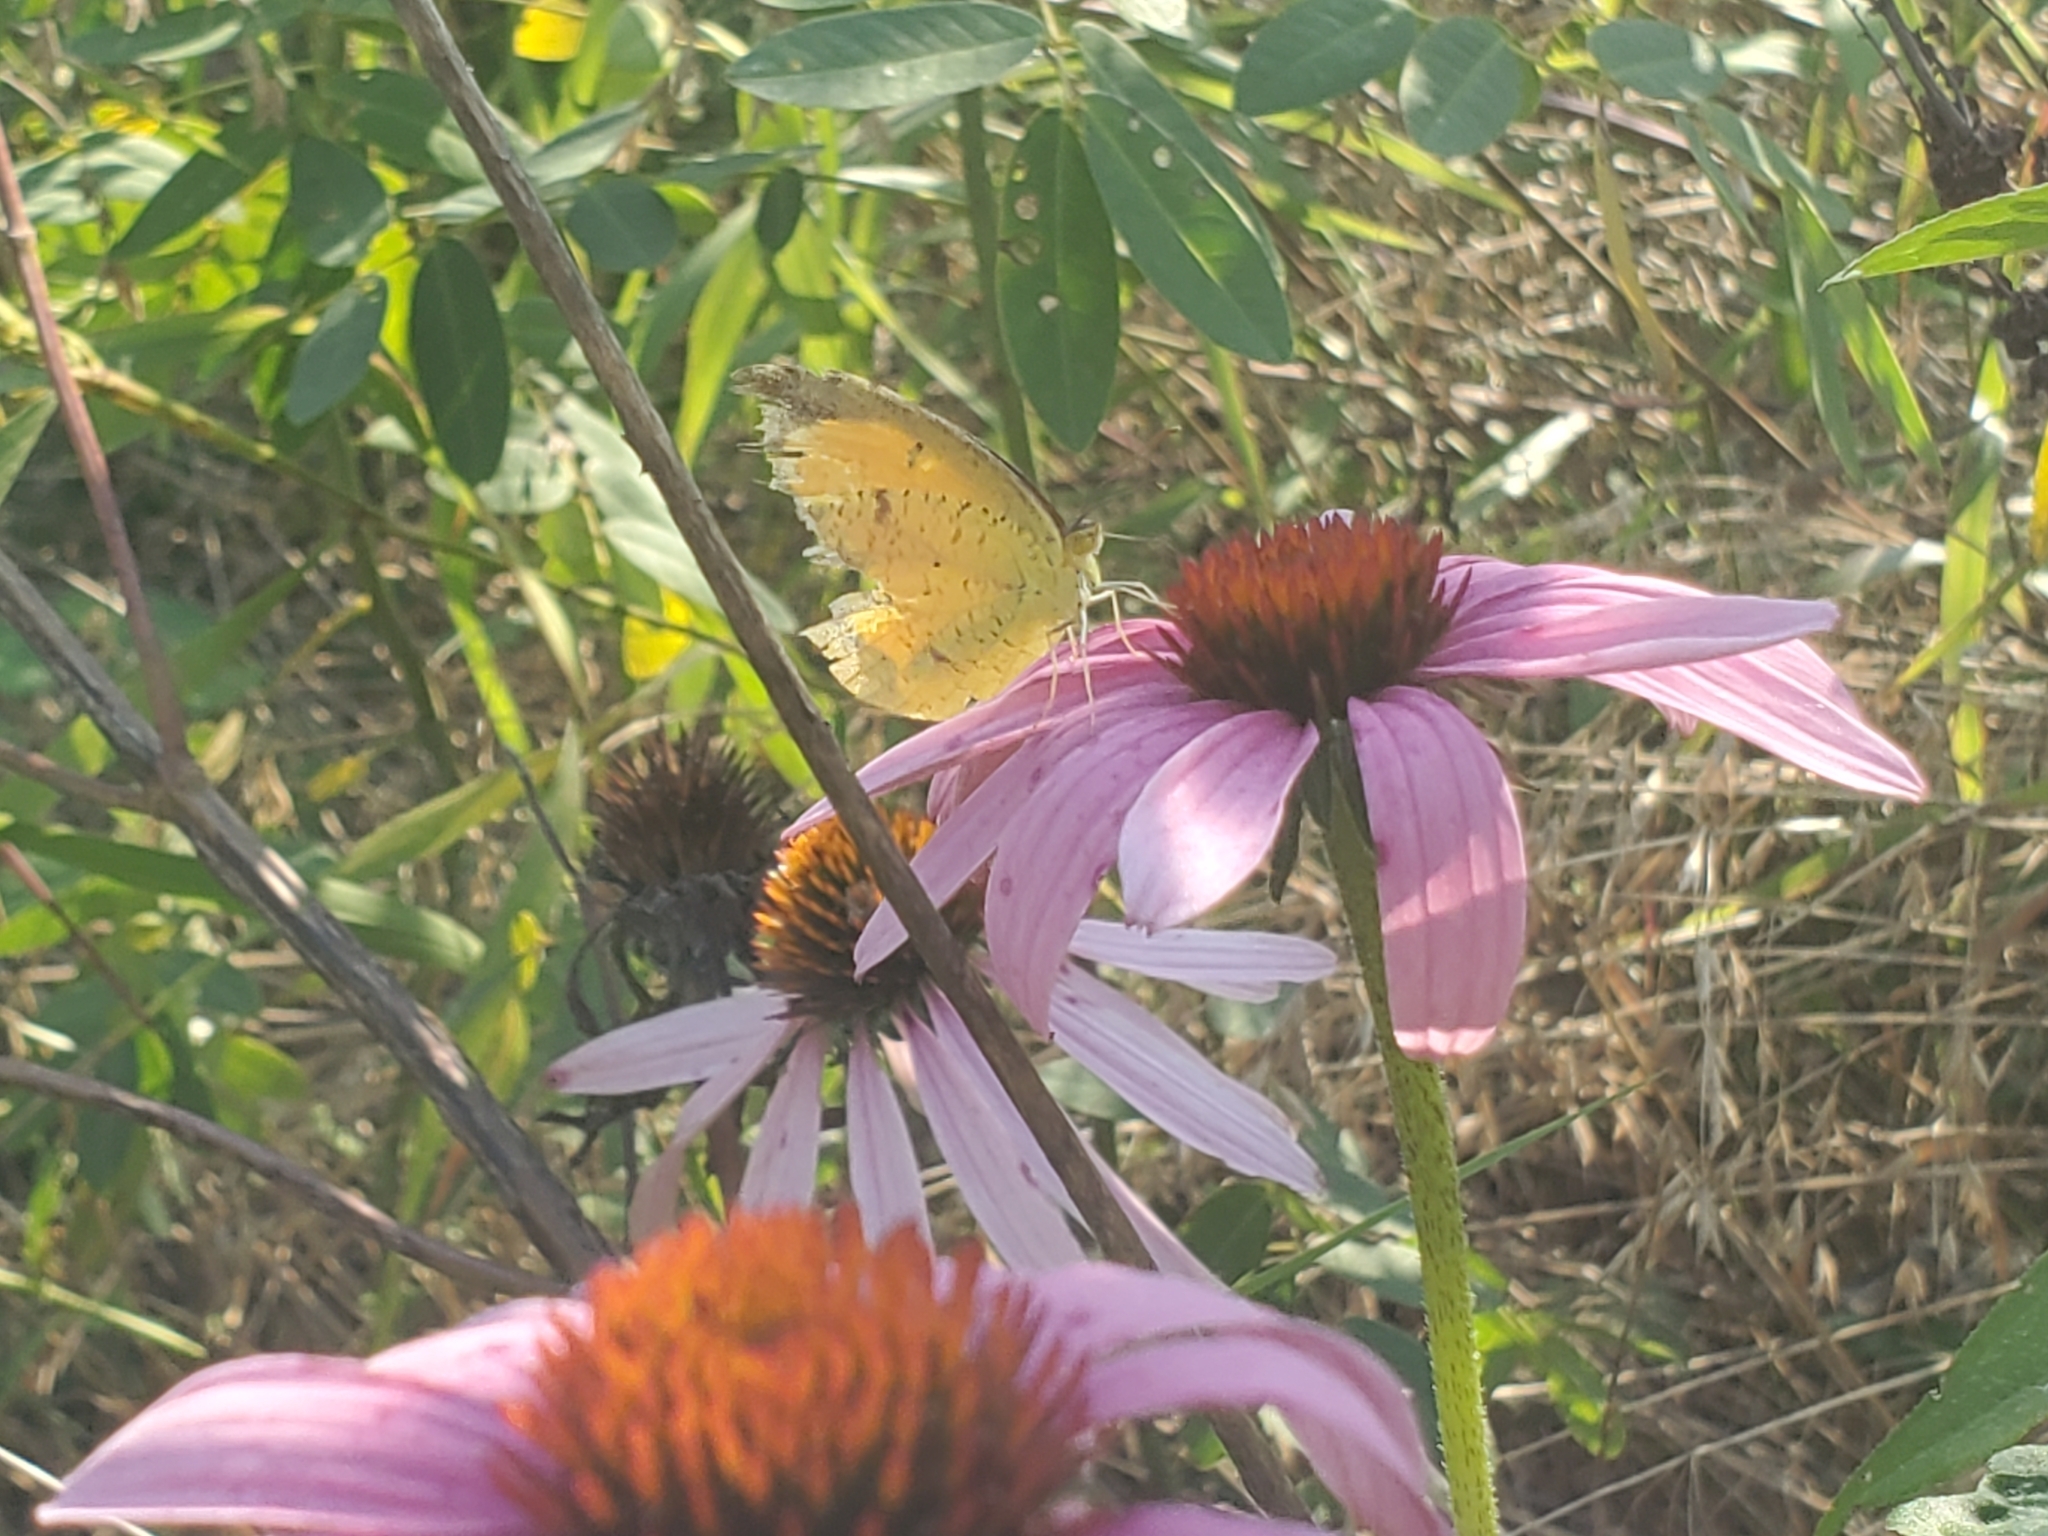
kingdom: Animalia
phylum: Arthropoda
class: Insecta
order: Lepidoptera
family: Pieridae
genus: Abaeis
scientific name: Abaeis nicippe
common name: Sleepy orange
